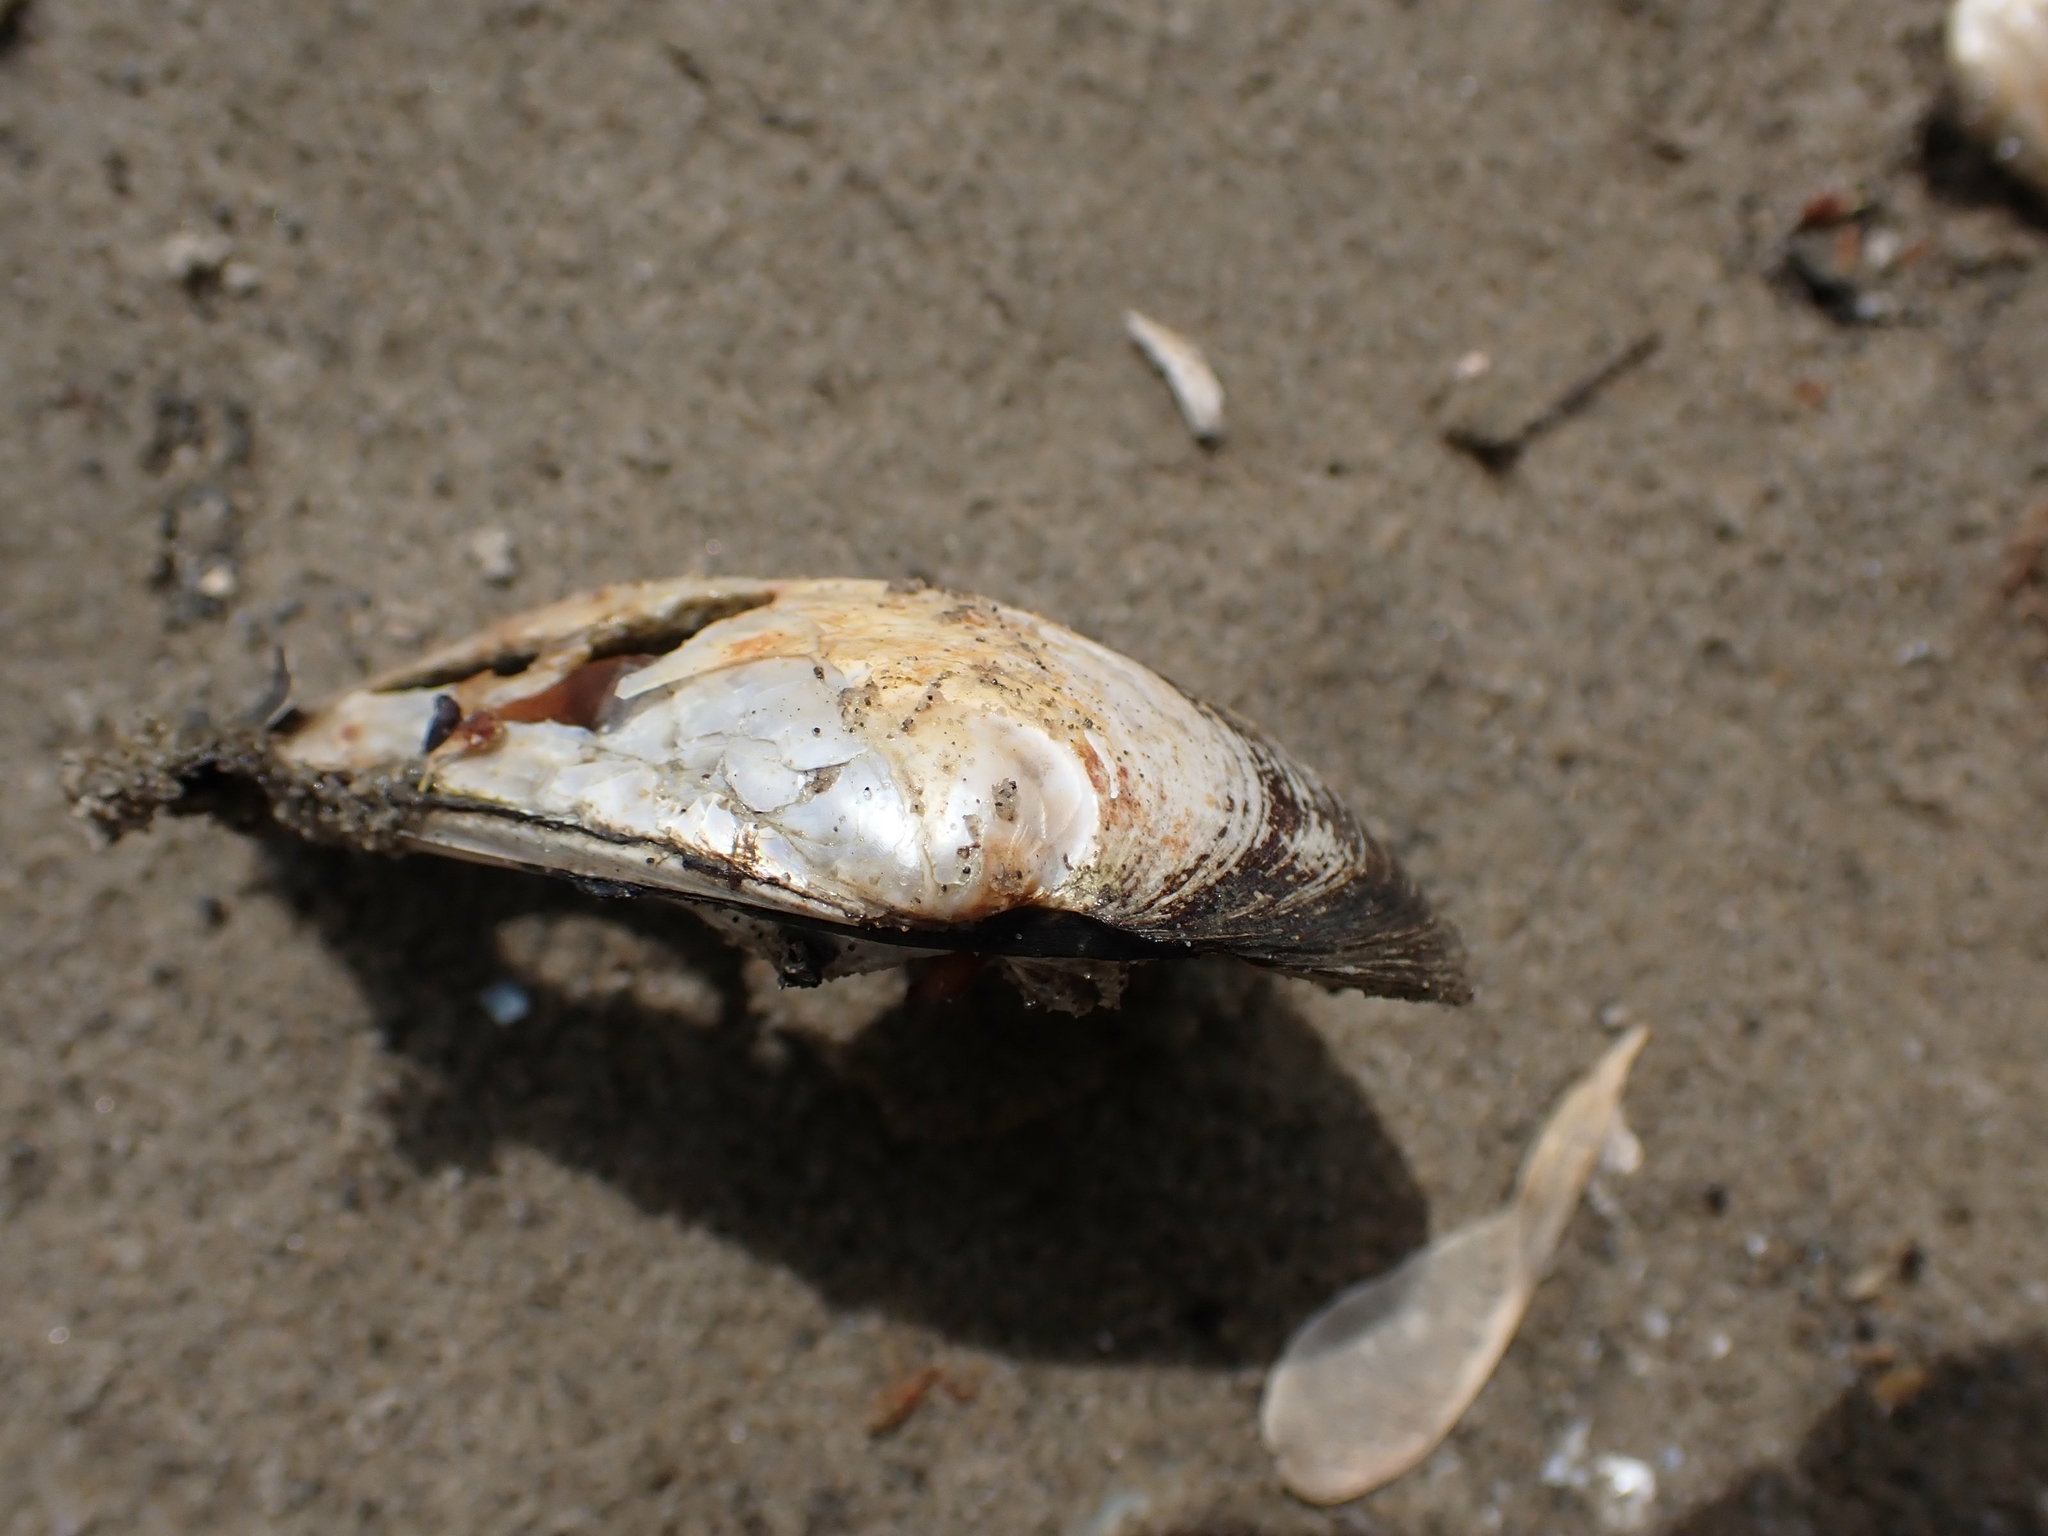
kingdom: Animalia
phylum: Mollusca
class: Bivalvia
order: Unionida
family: Unionidae
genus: Amblema
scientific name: Amblema plicata
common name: Threeridge
